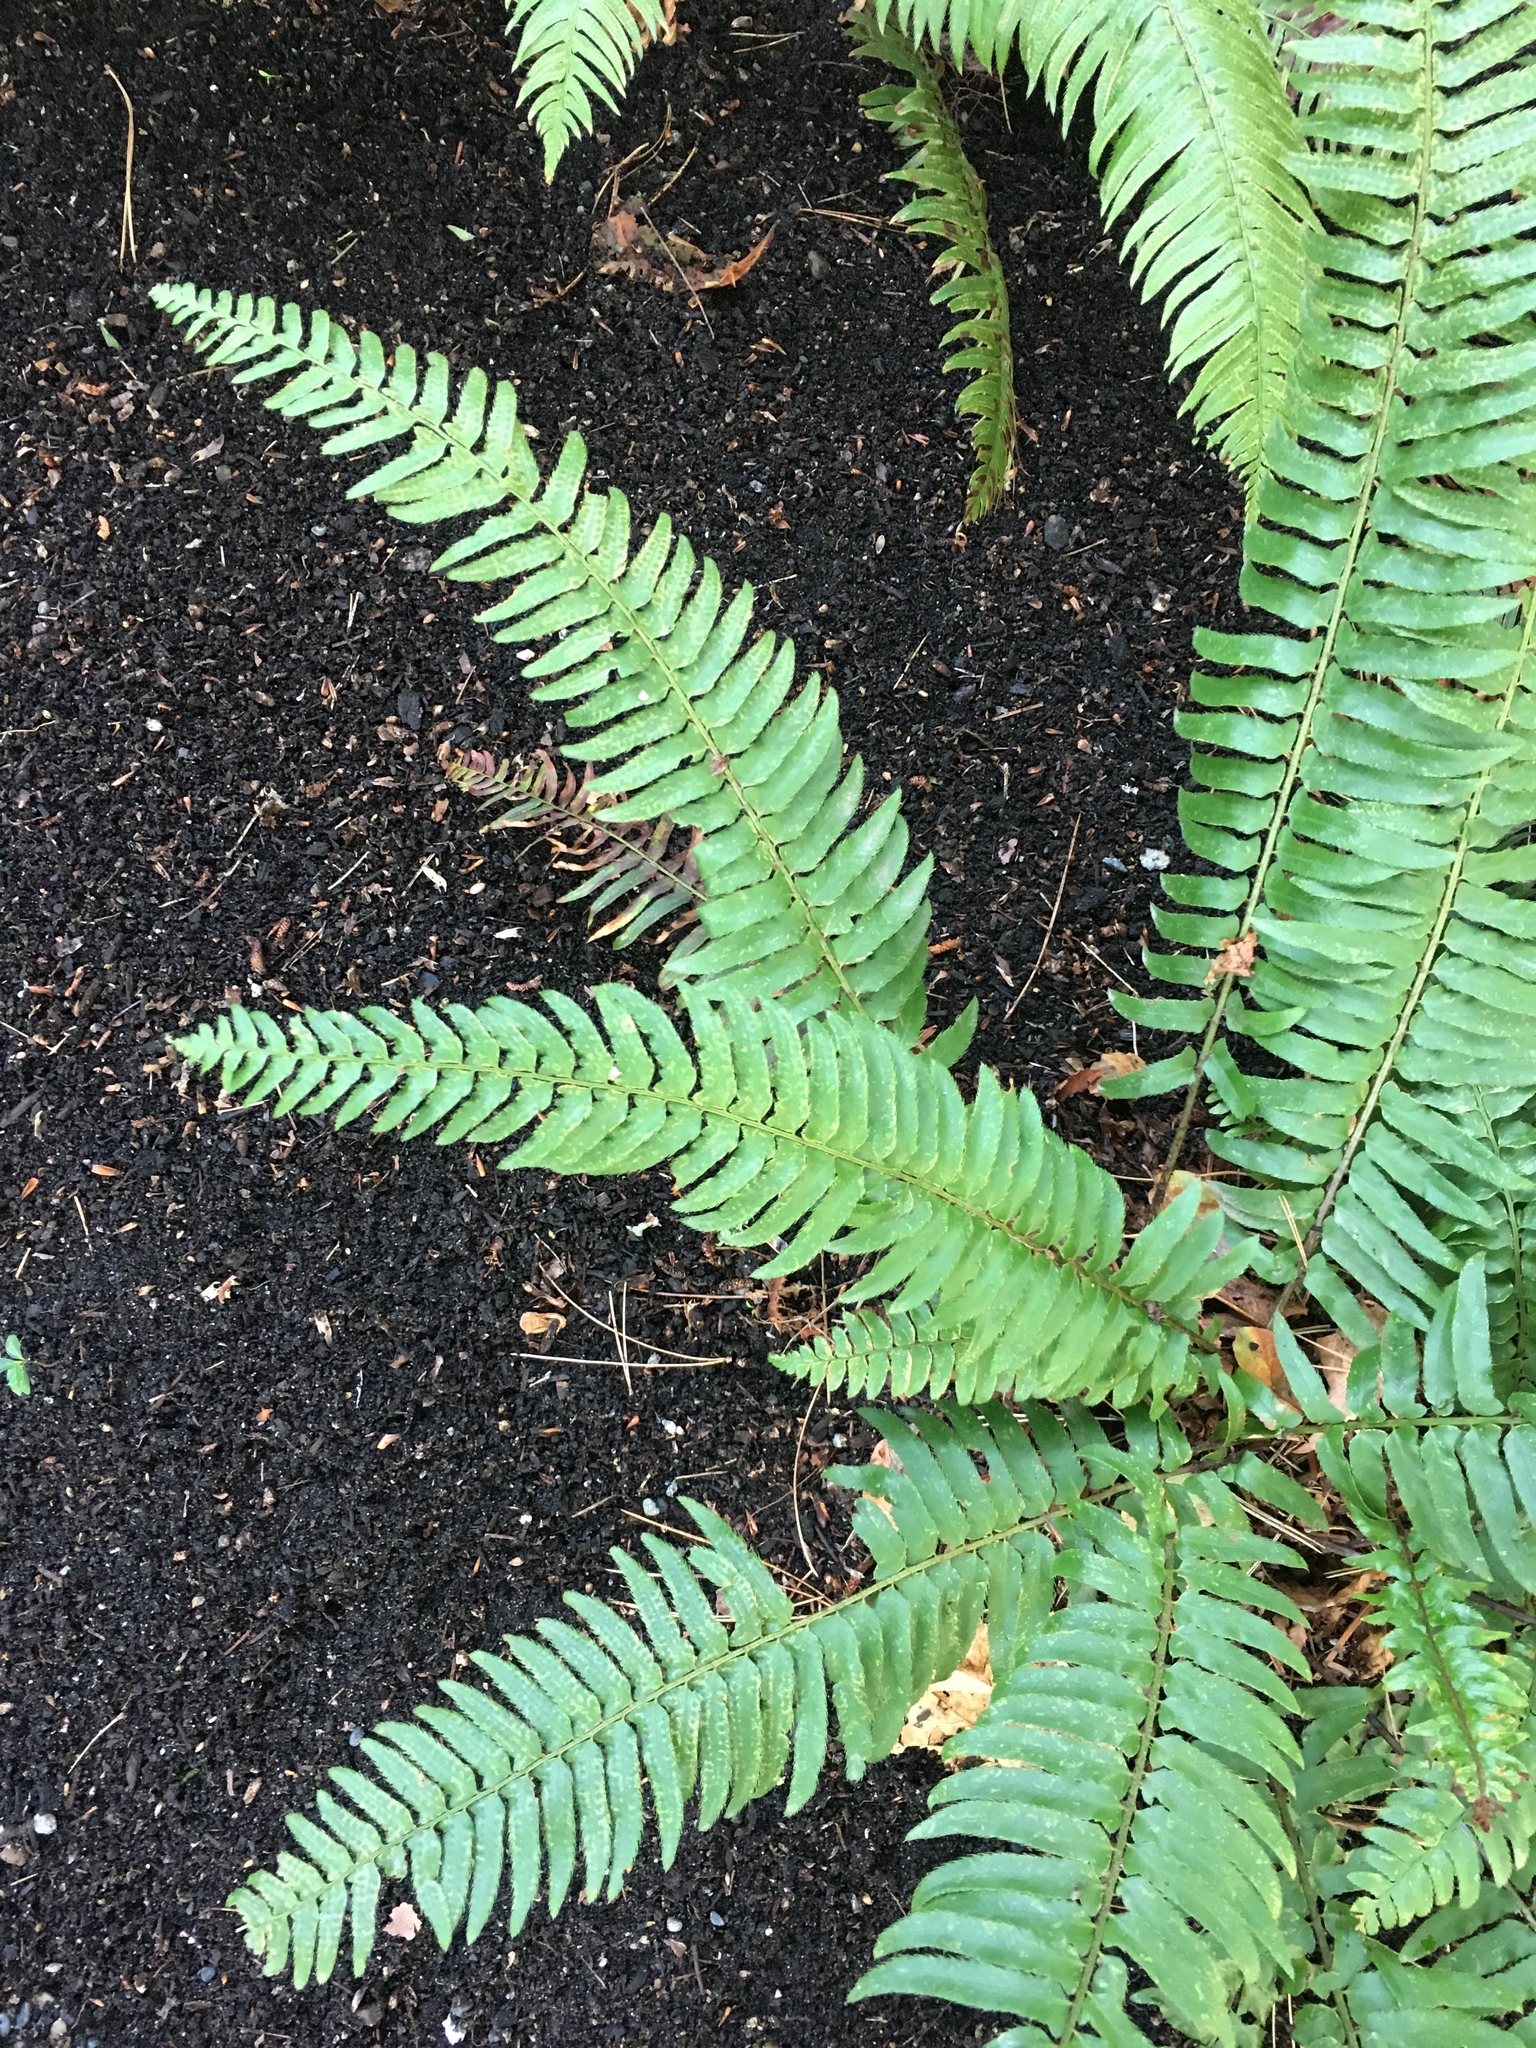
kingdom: Plantae
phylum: Tracheophyta
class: Polypodiopsida
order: Polypodiales
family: Dryopteridaceae
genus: Polystichum
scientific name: Polystichum munitum
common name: Western sword-fern
